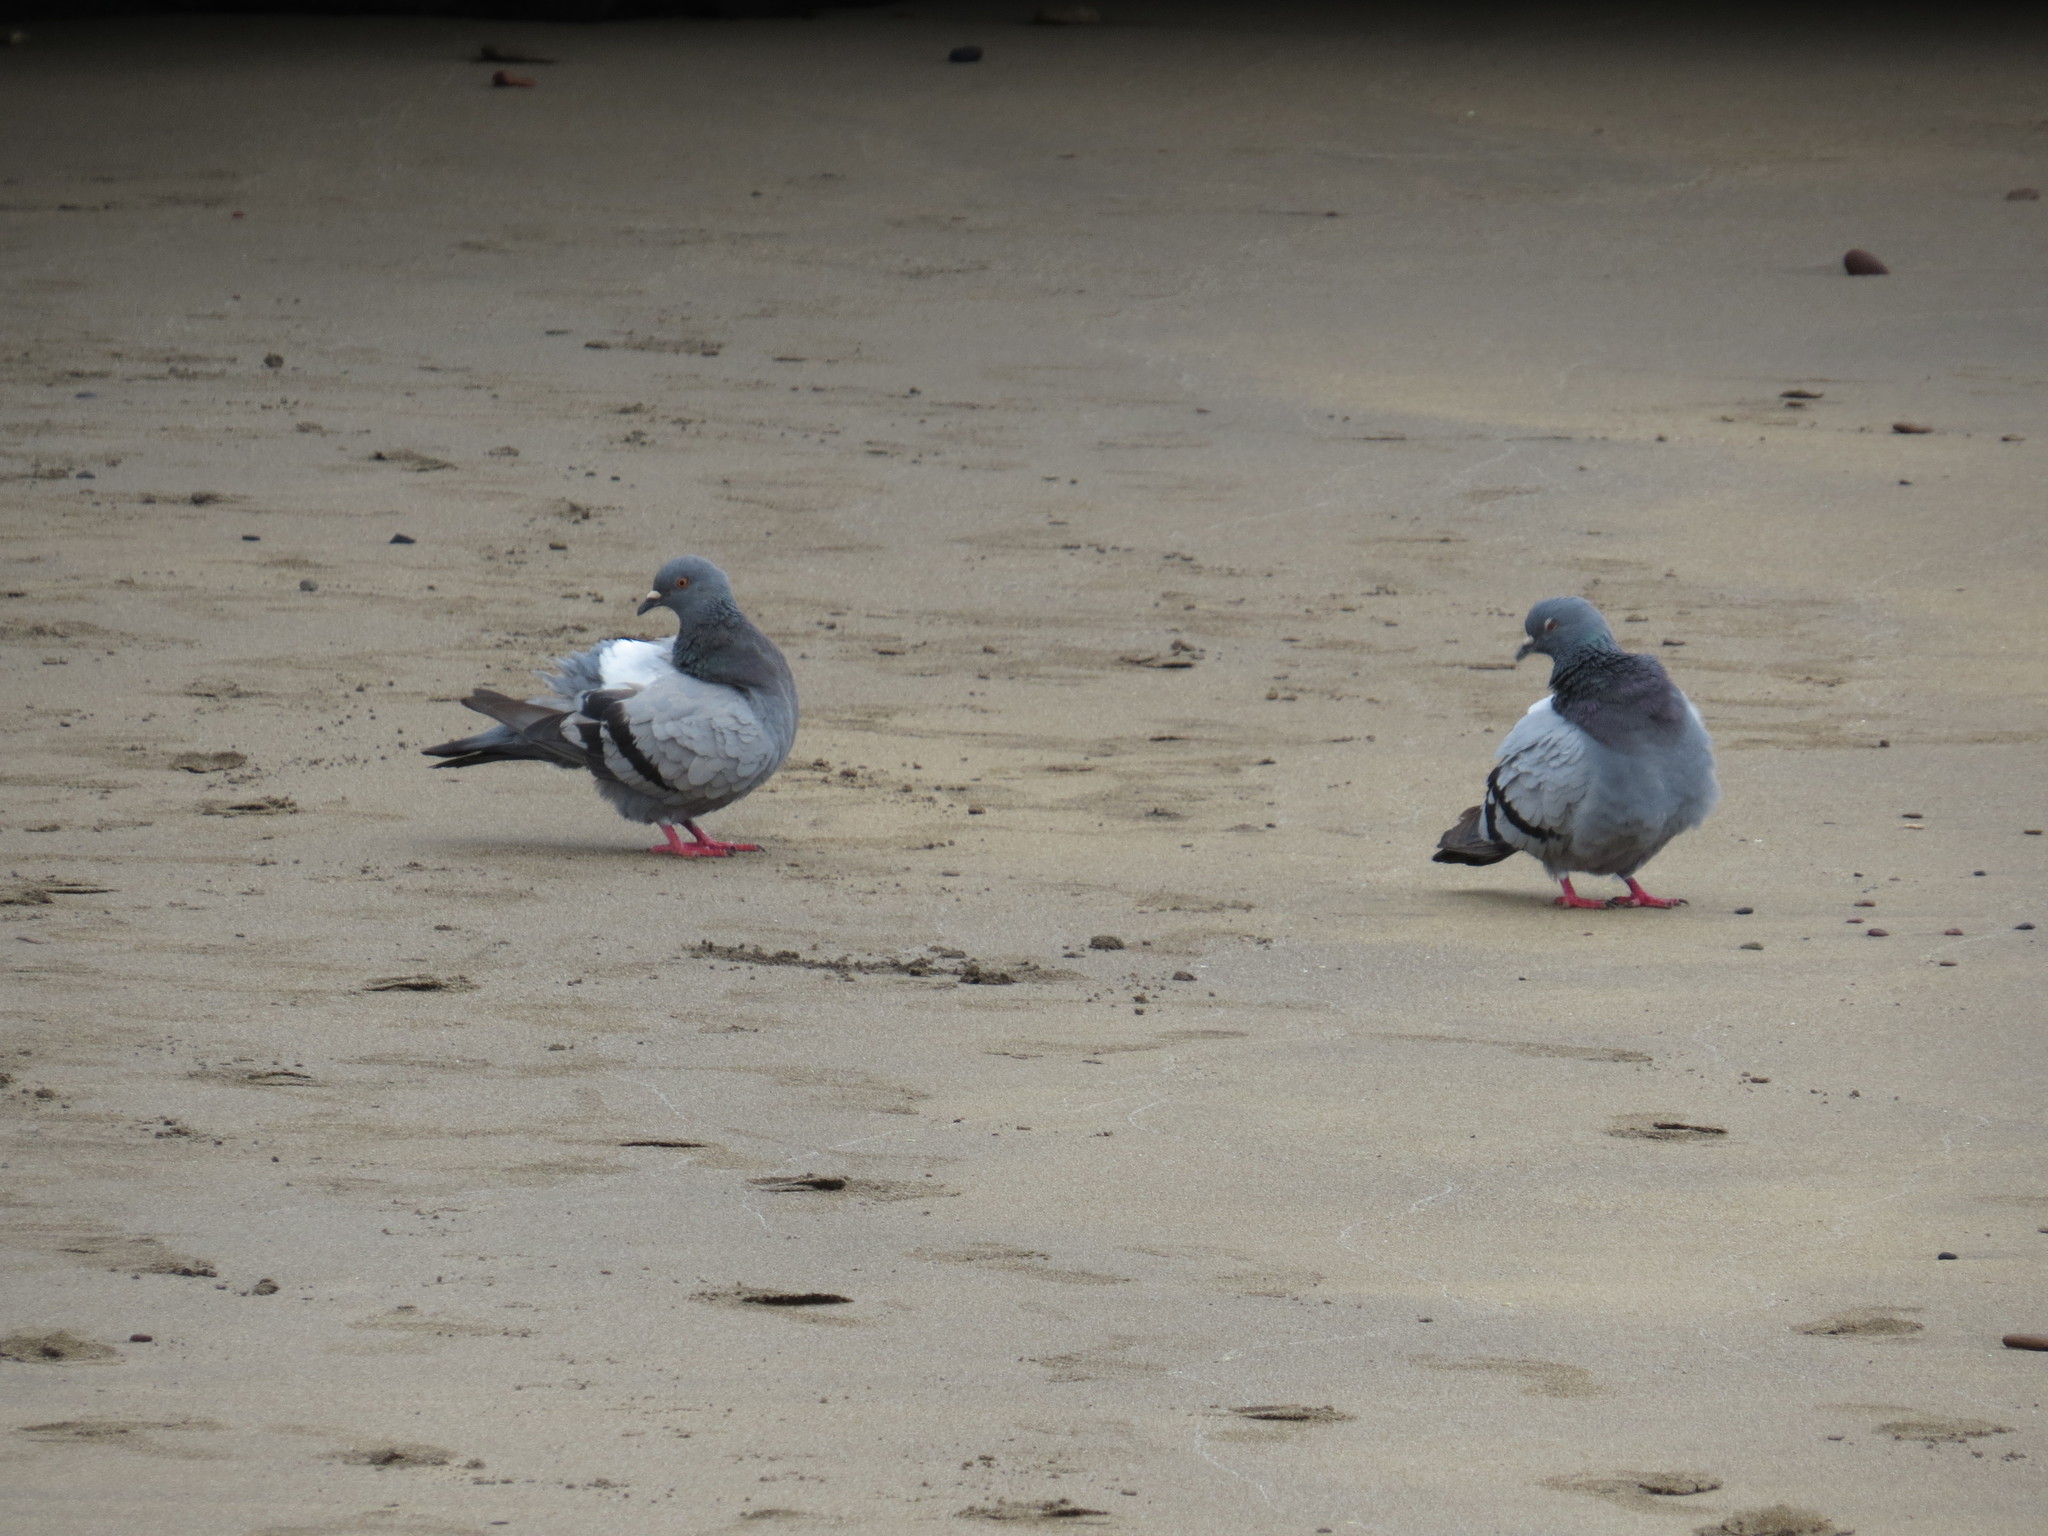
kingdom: Animalia
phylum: Chordata
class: Aves
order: Columbiformes
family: Columbidae
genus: Columba
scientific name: Columba livia
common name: Rock pigeon
